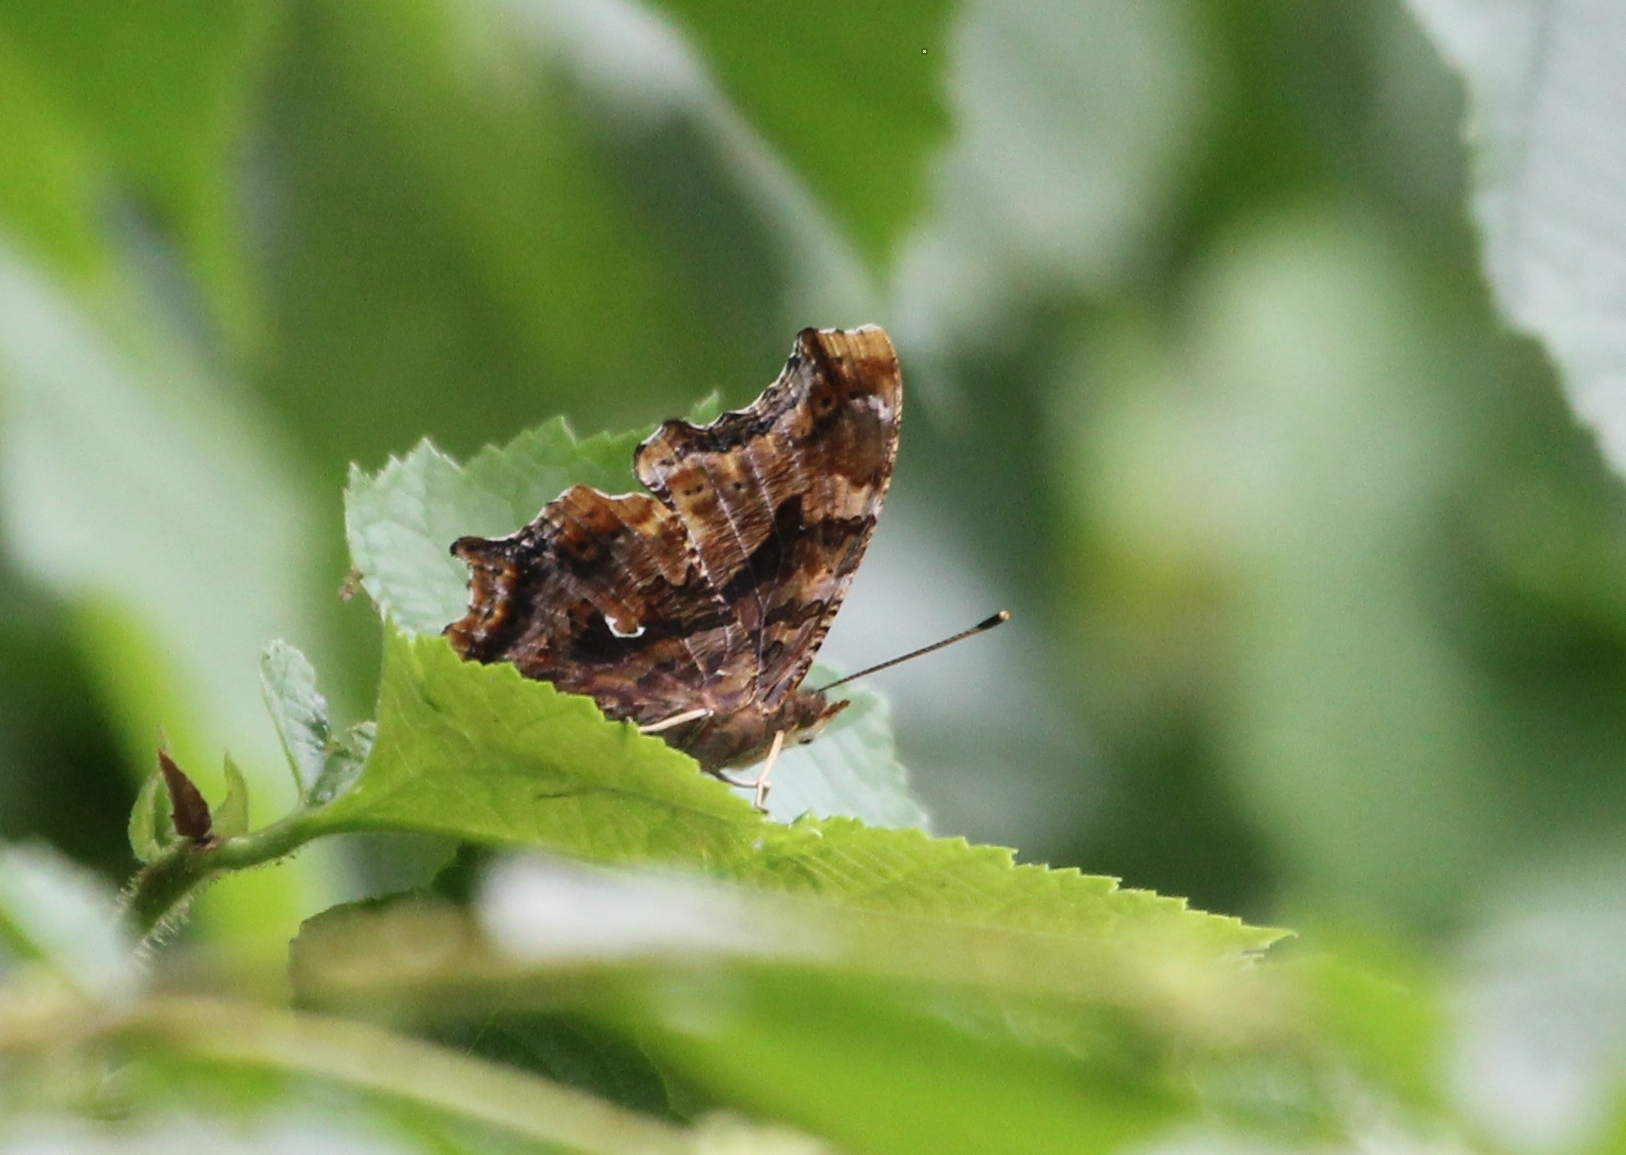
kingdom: Animalia
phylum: Arthropoda
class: Insecta
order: Lepidoptera
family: Nymphalidae
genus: Polygonia
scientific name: Polygonia comma
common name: Eastern comma
